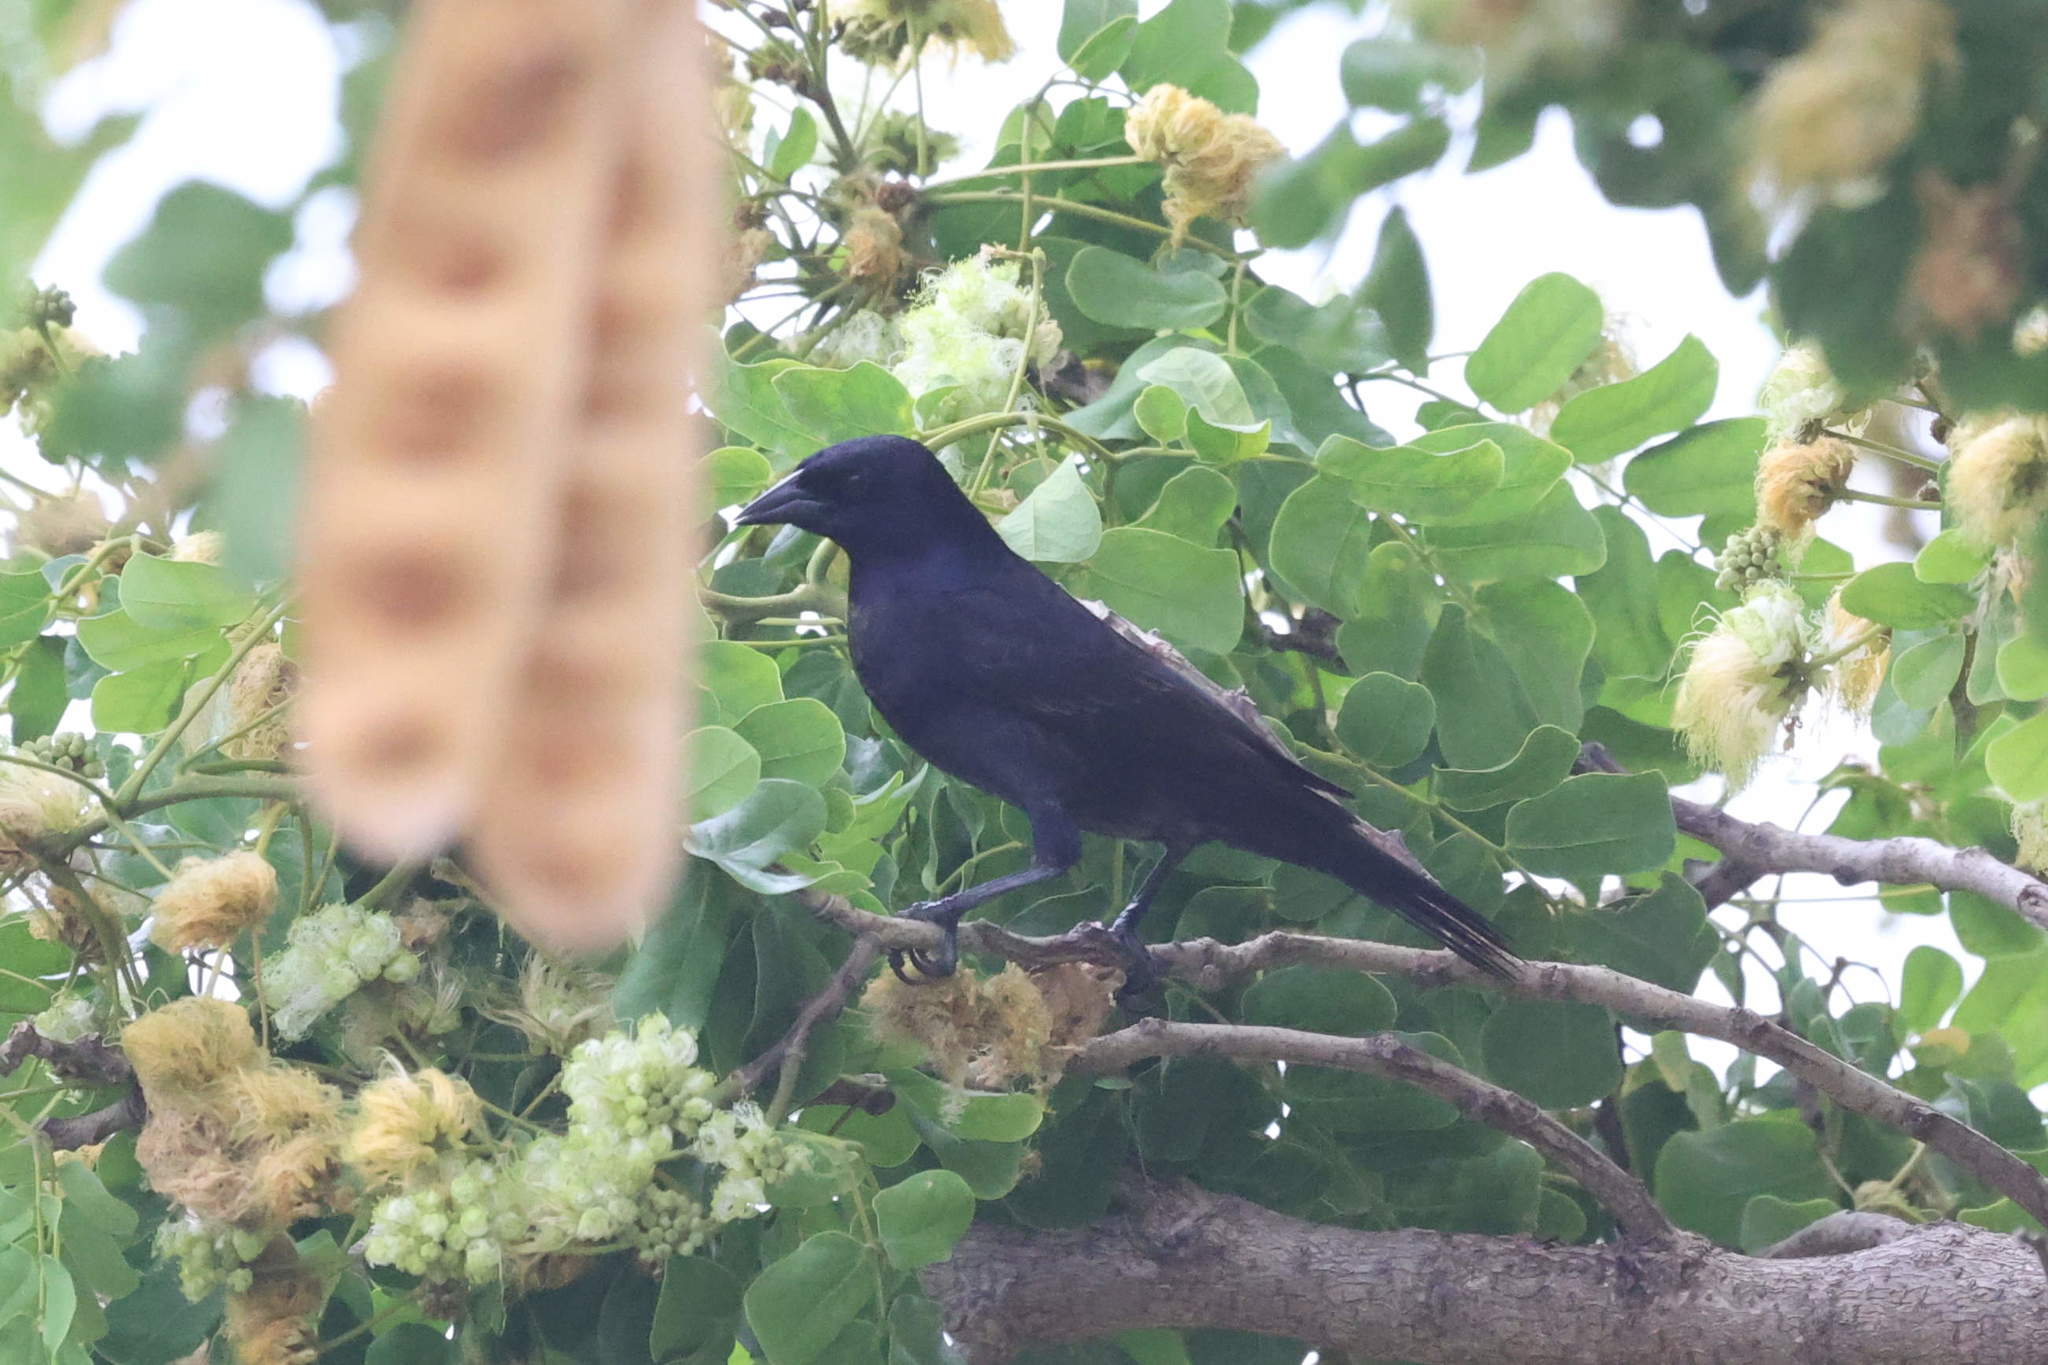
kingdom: Animalia
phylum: Chordata
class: Aves
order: Passeriformes
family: Icteridae
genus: Molothrus
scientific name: Molothrus bonariensis
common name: Shiny cowbird
